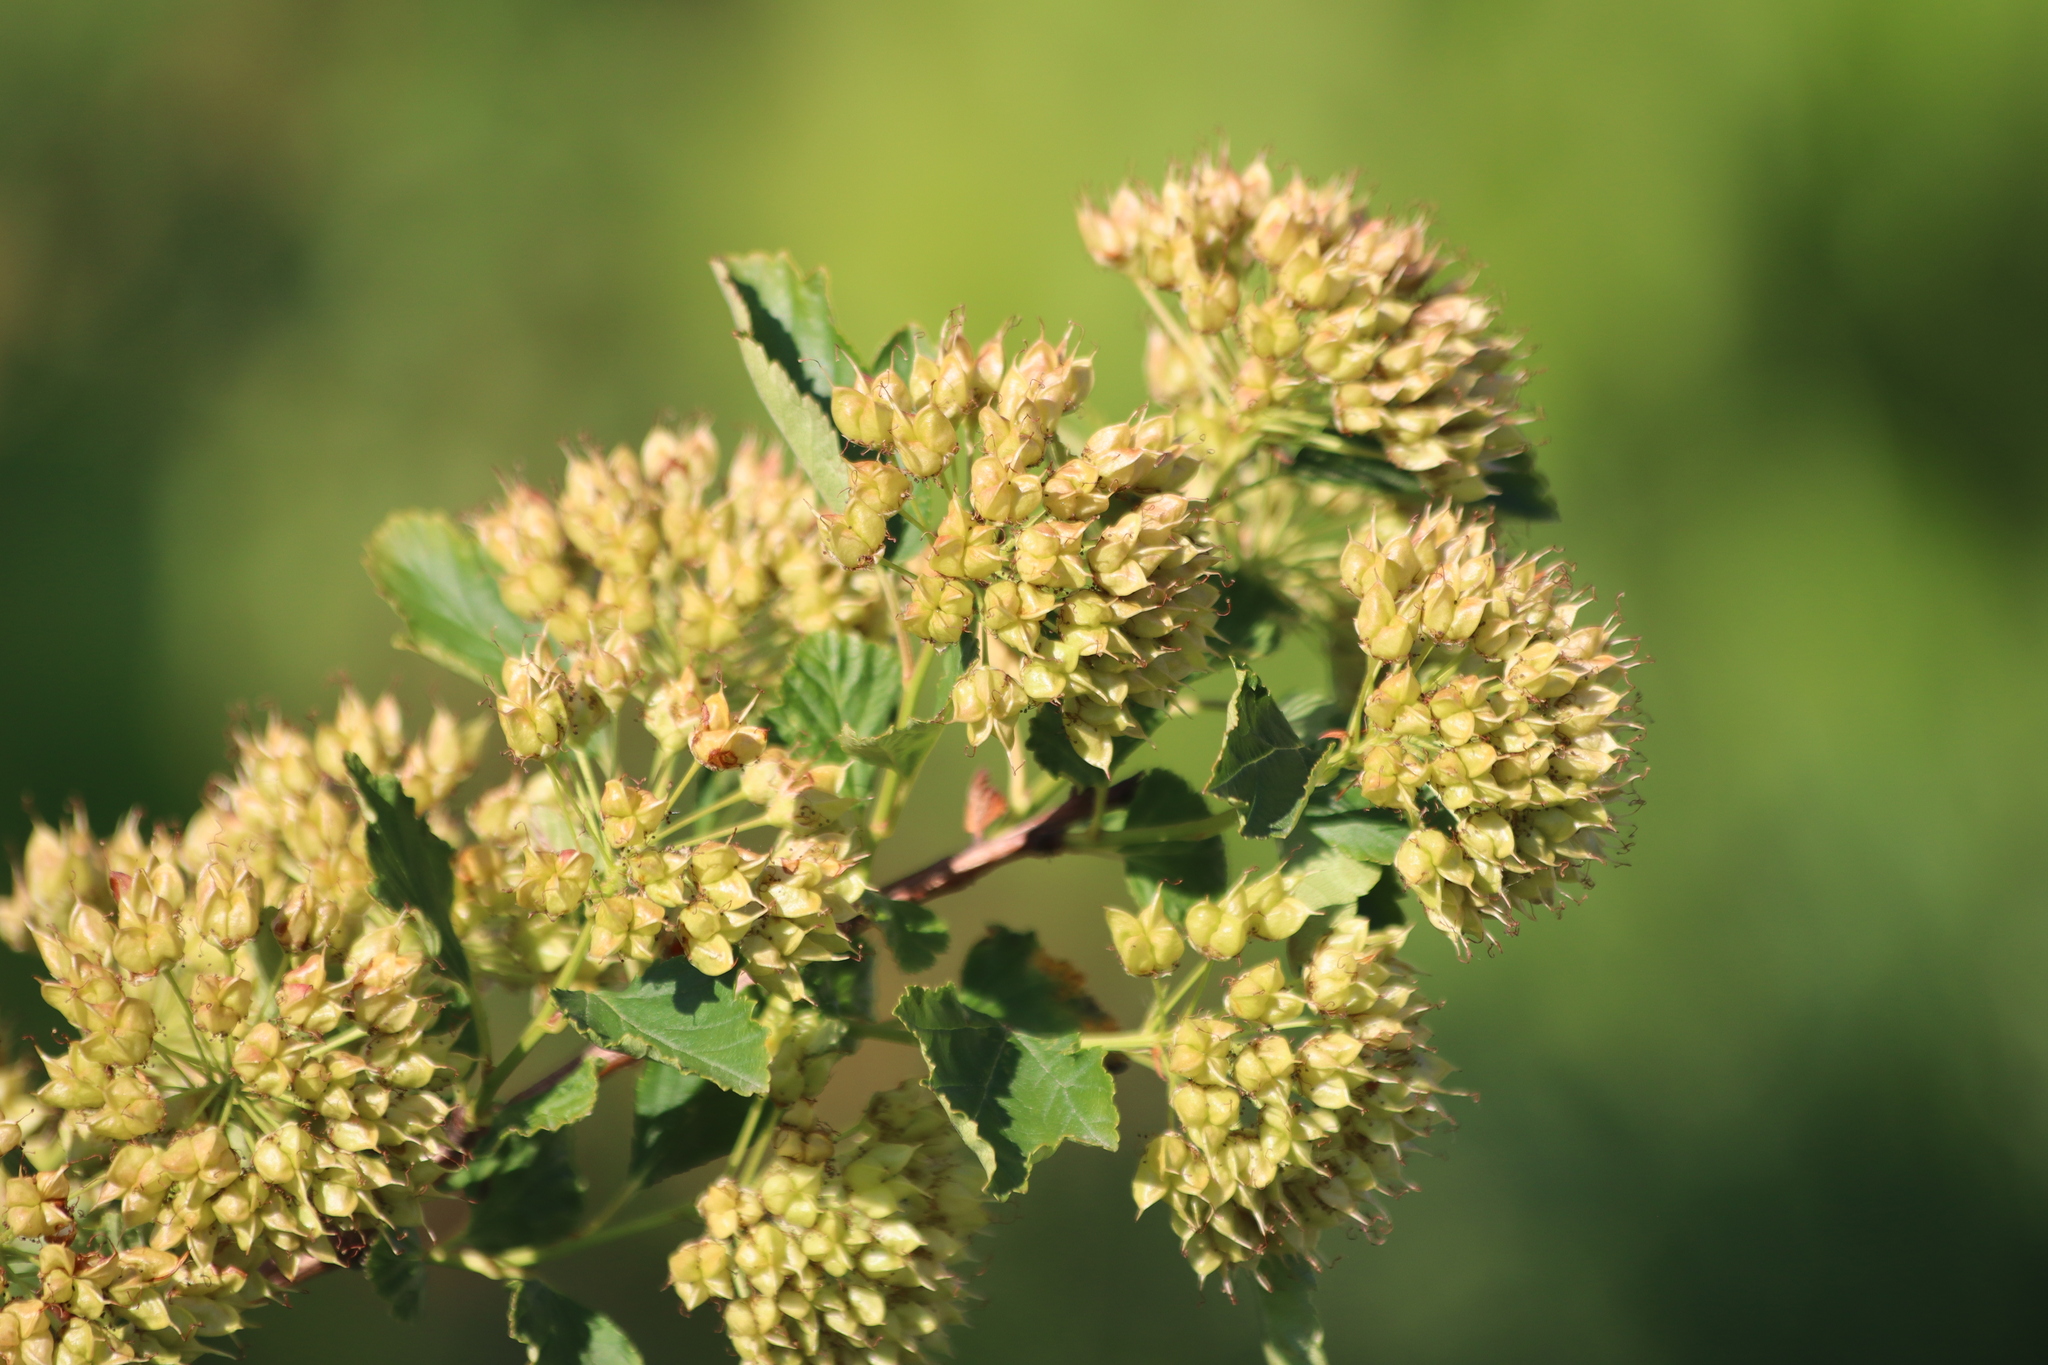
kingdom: Plantae
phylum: Tracheophyta
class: Magnoliopsida
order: Rosales
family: Rosaceae
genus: Physocarpus
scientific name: Physocarpus opulifolius
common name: Ninebark
